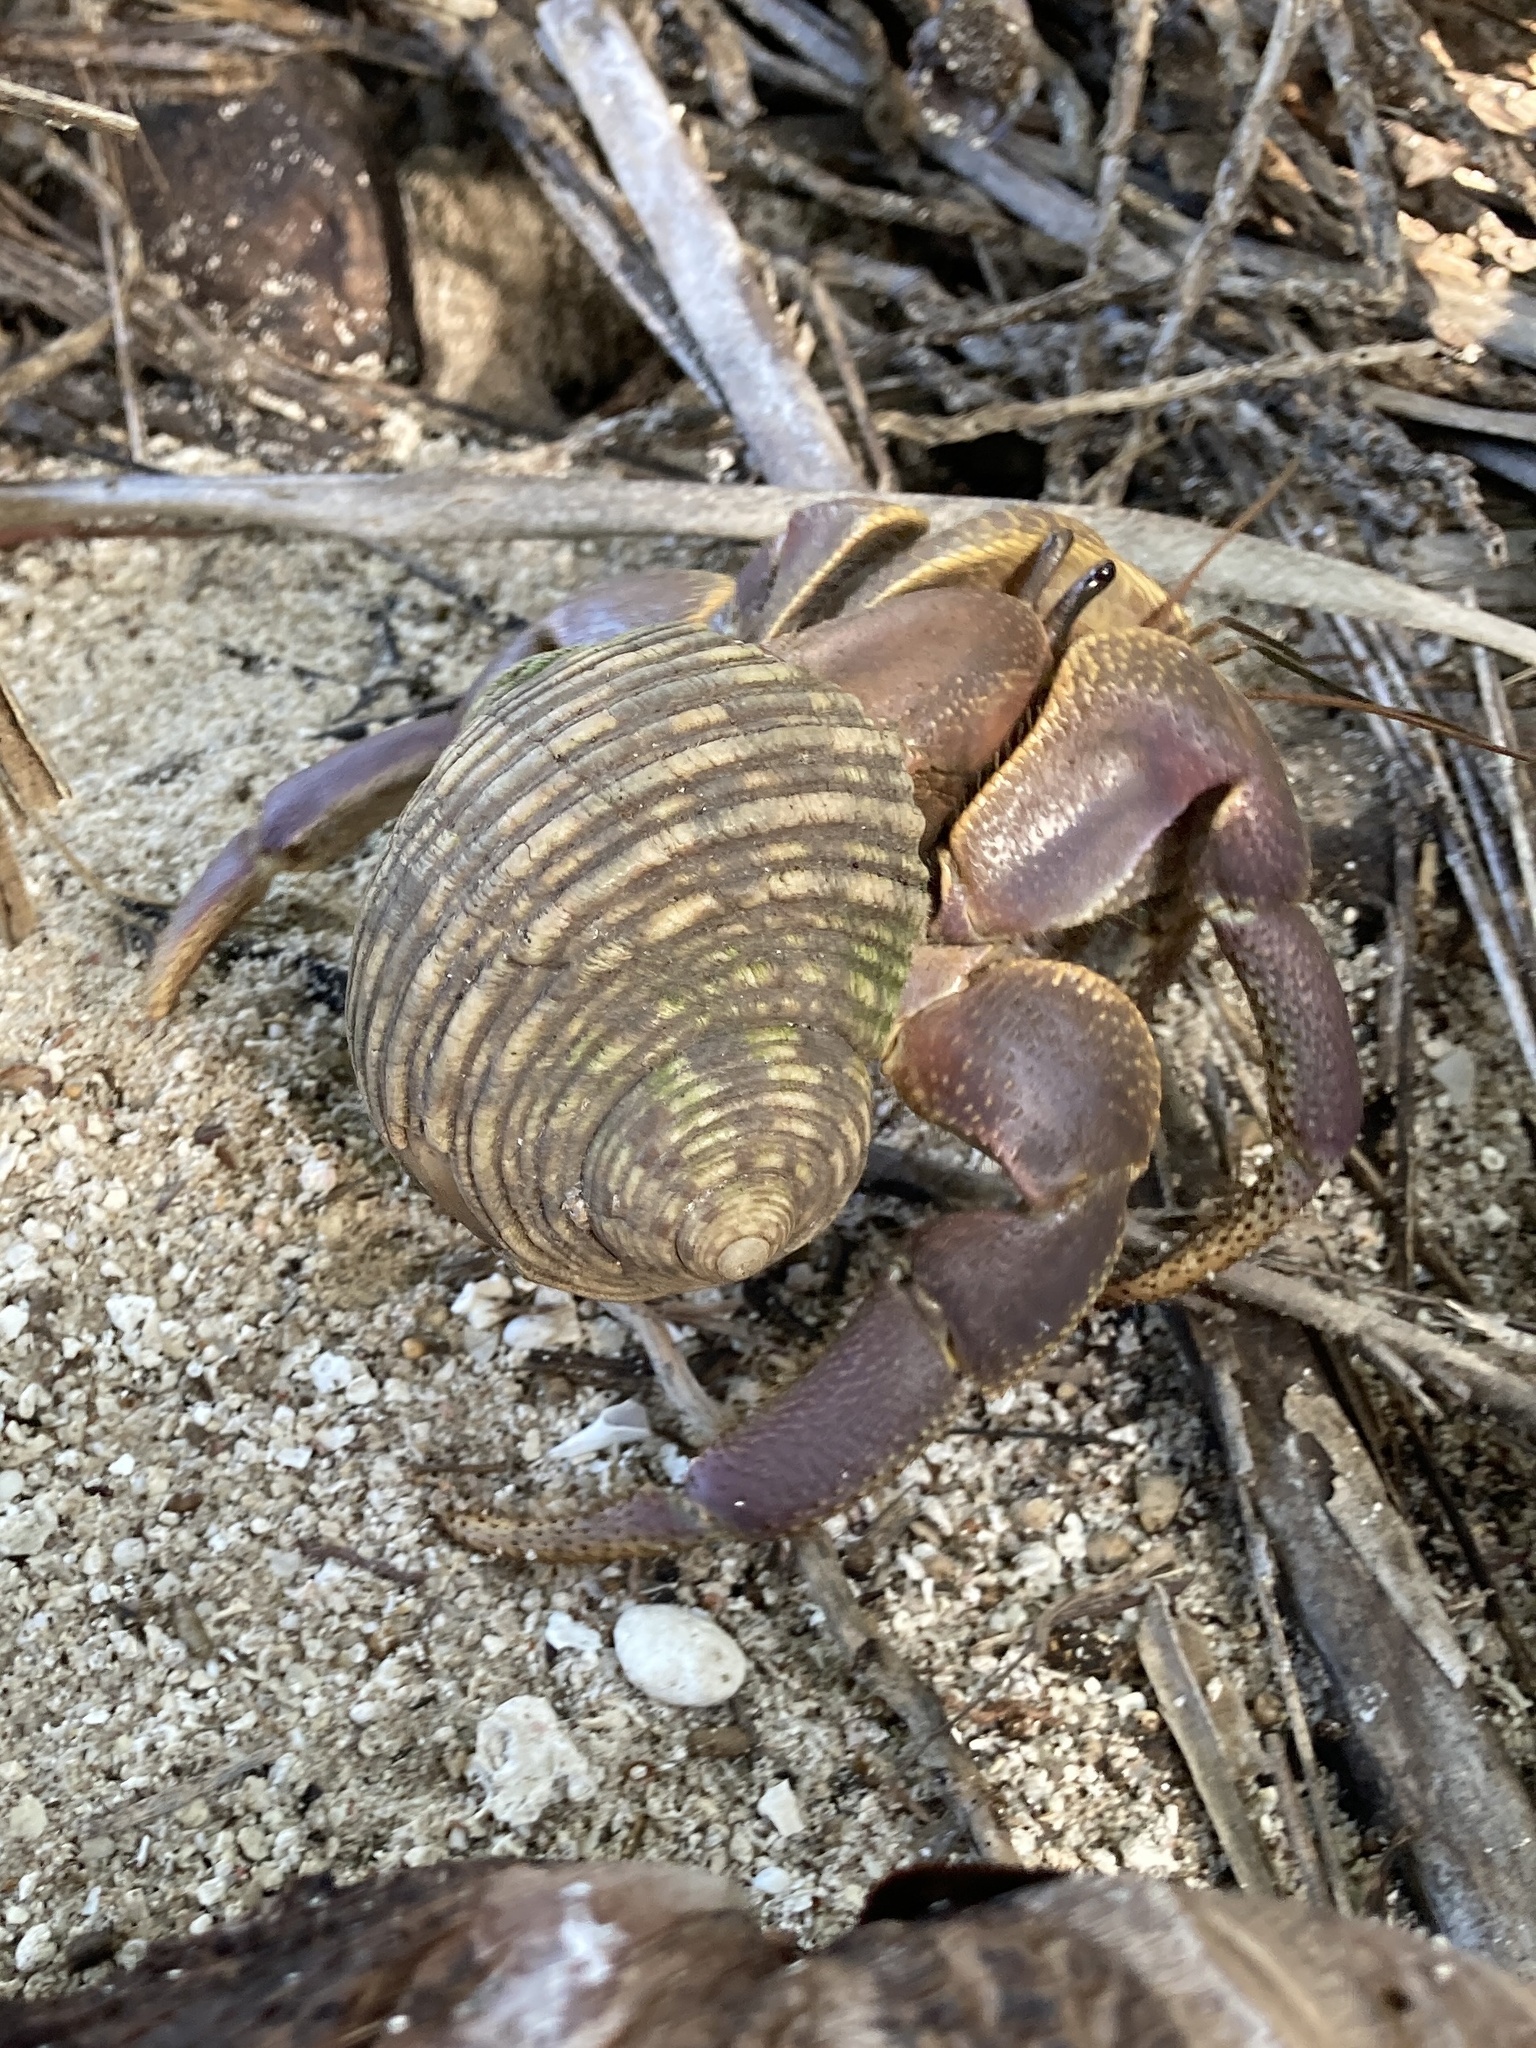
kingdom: Animalia
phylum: Arthropoda
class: Malacostraca
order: Decapoda
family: Coenobitidae
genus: Coenobita
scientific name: Coenobita brevimanus
